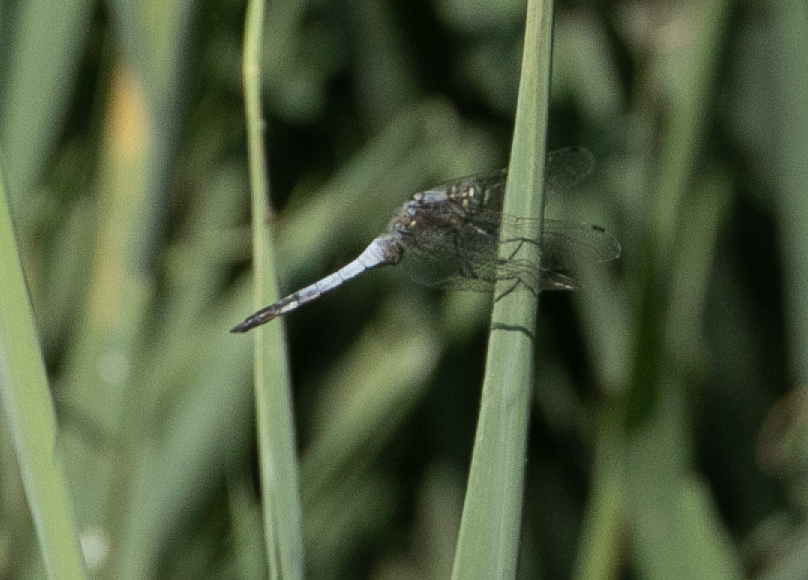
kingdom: Animalia
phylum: Arthropoda
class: Insecta
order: Odonata
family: Libellulidae
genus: Orthetrum
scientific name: Orthetrum cancellatum
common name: Black-tailed skimmer
